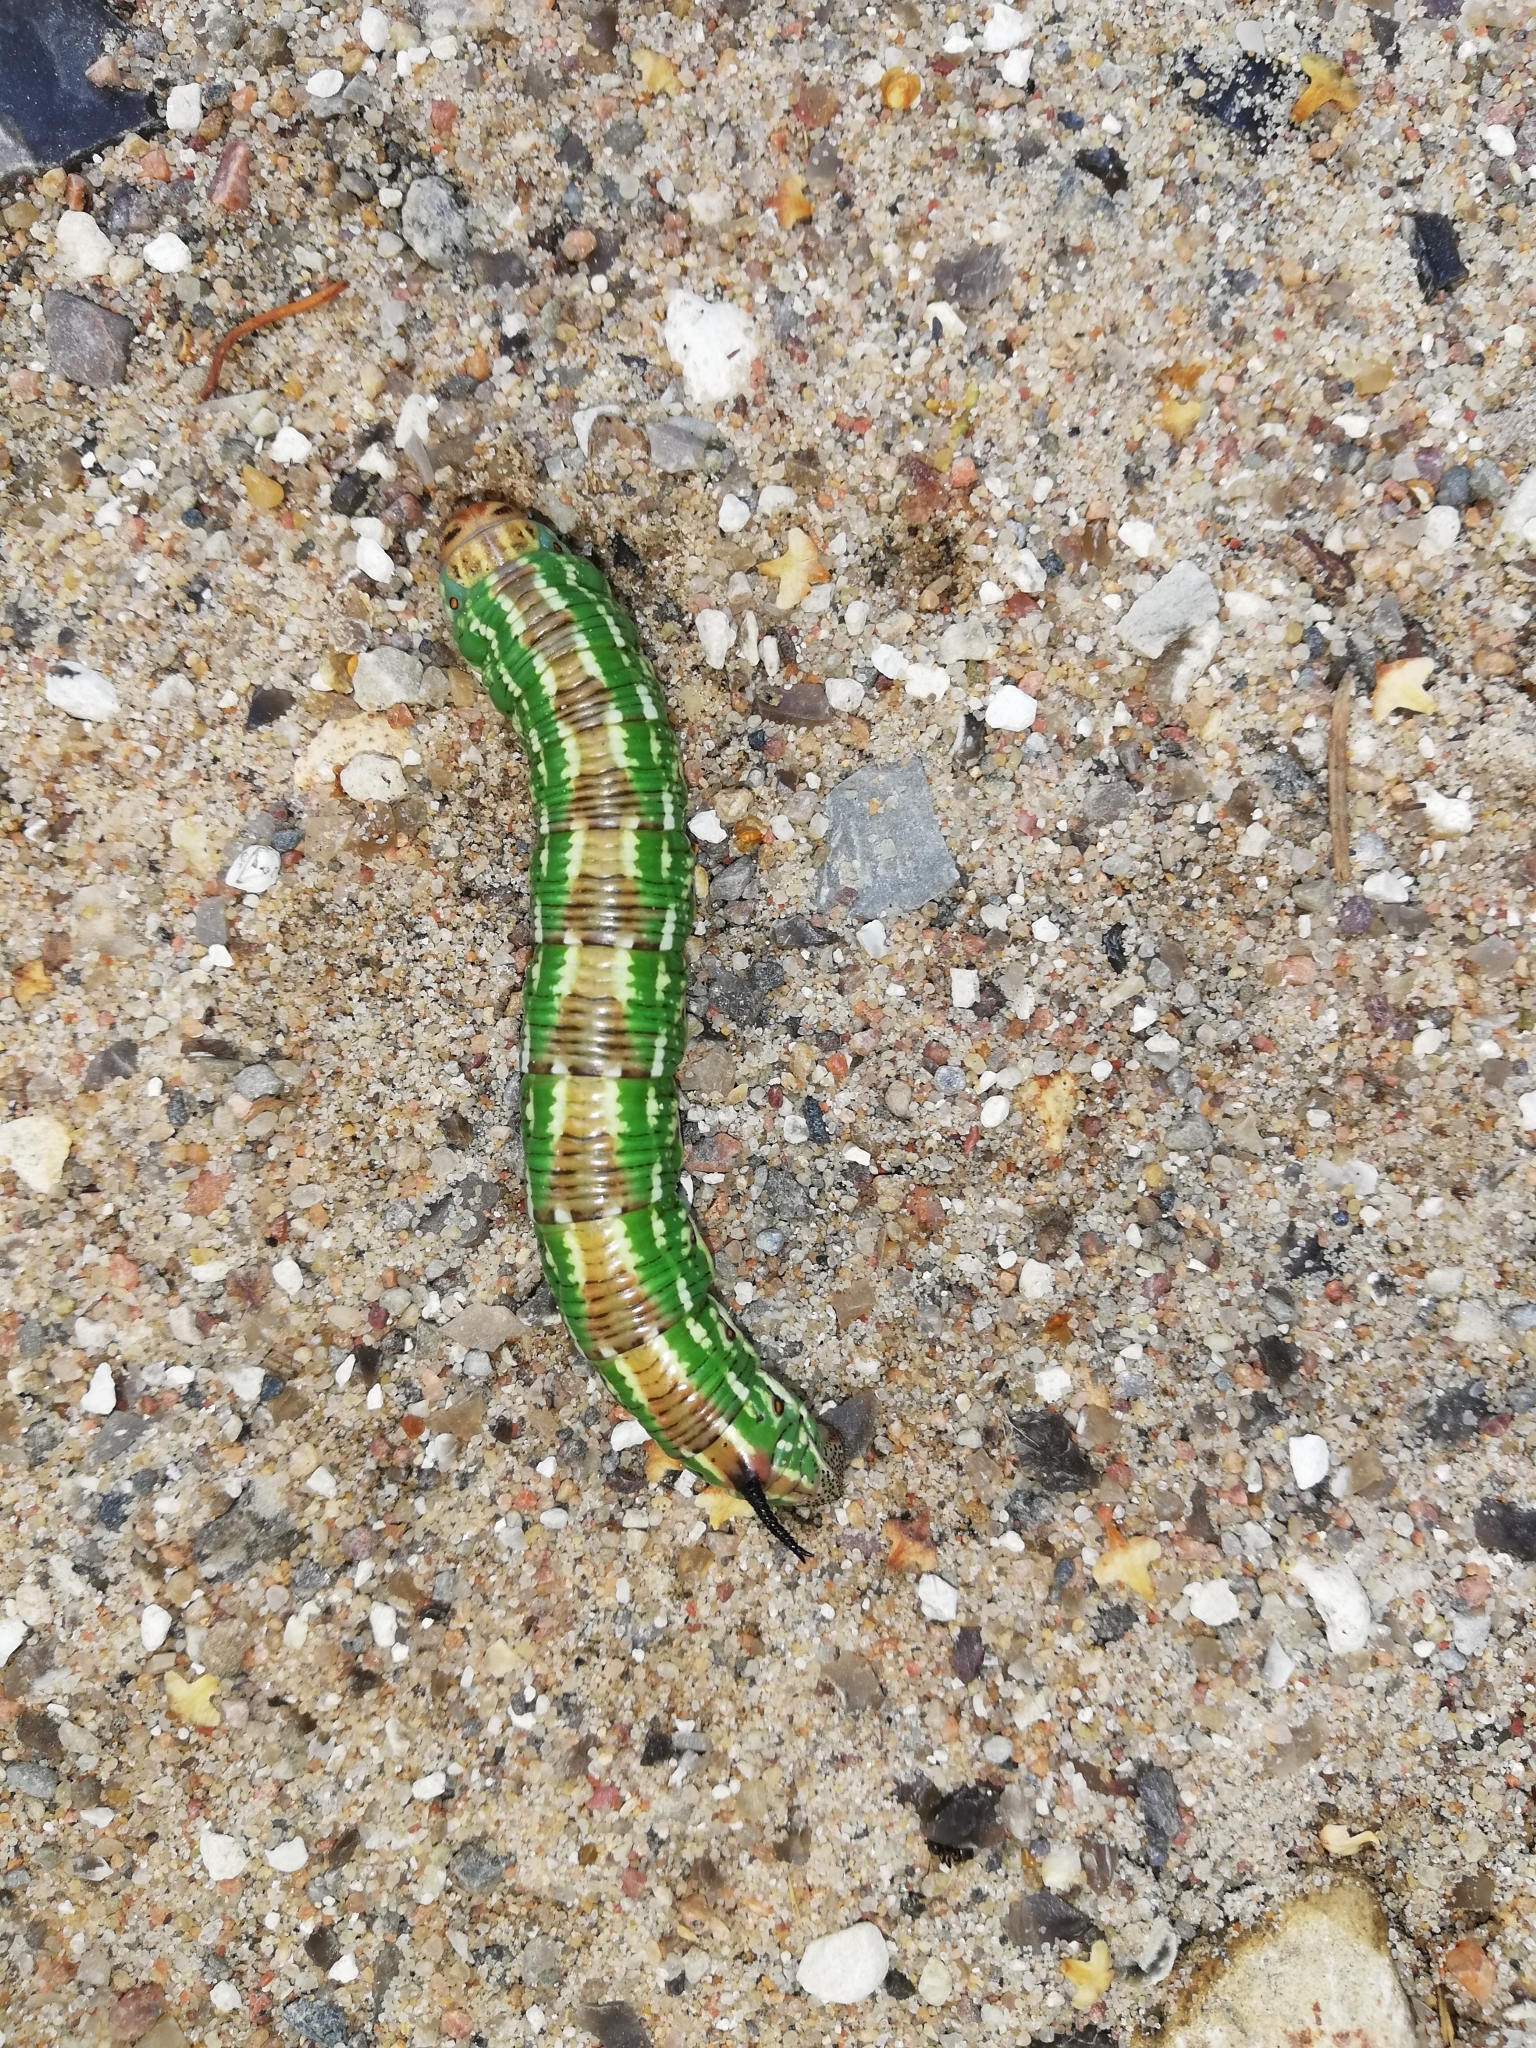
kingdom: Animalia
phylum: Arthropoda
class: Insecta
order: Lepidoptera
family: Sphingidae
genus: Sphinx
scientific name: Sphinx pinastri
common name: Pine hawk-moth
